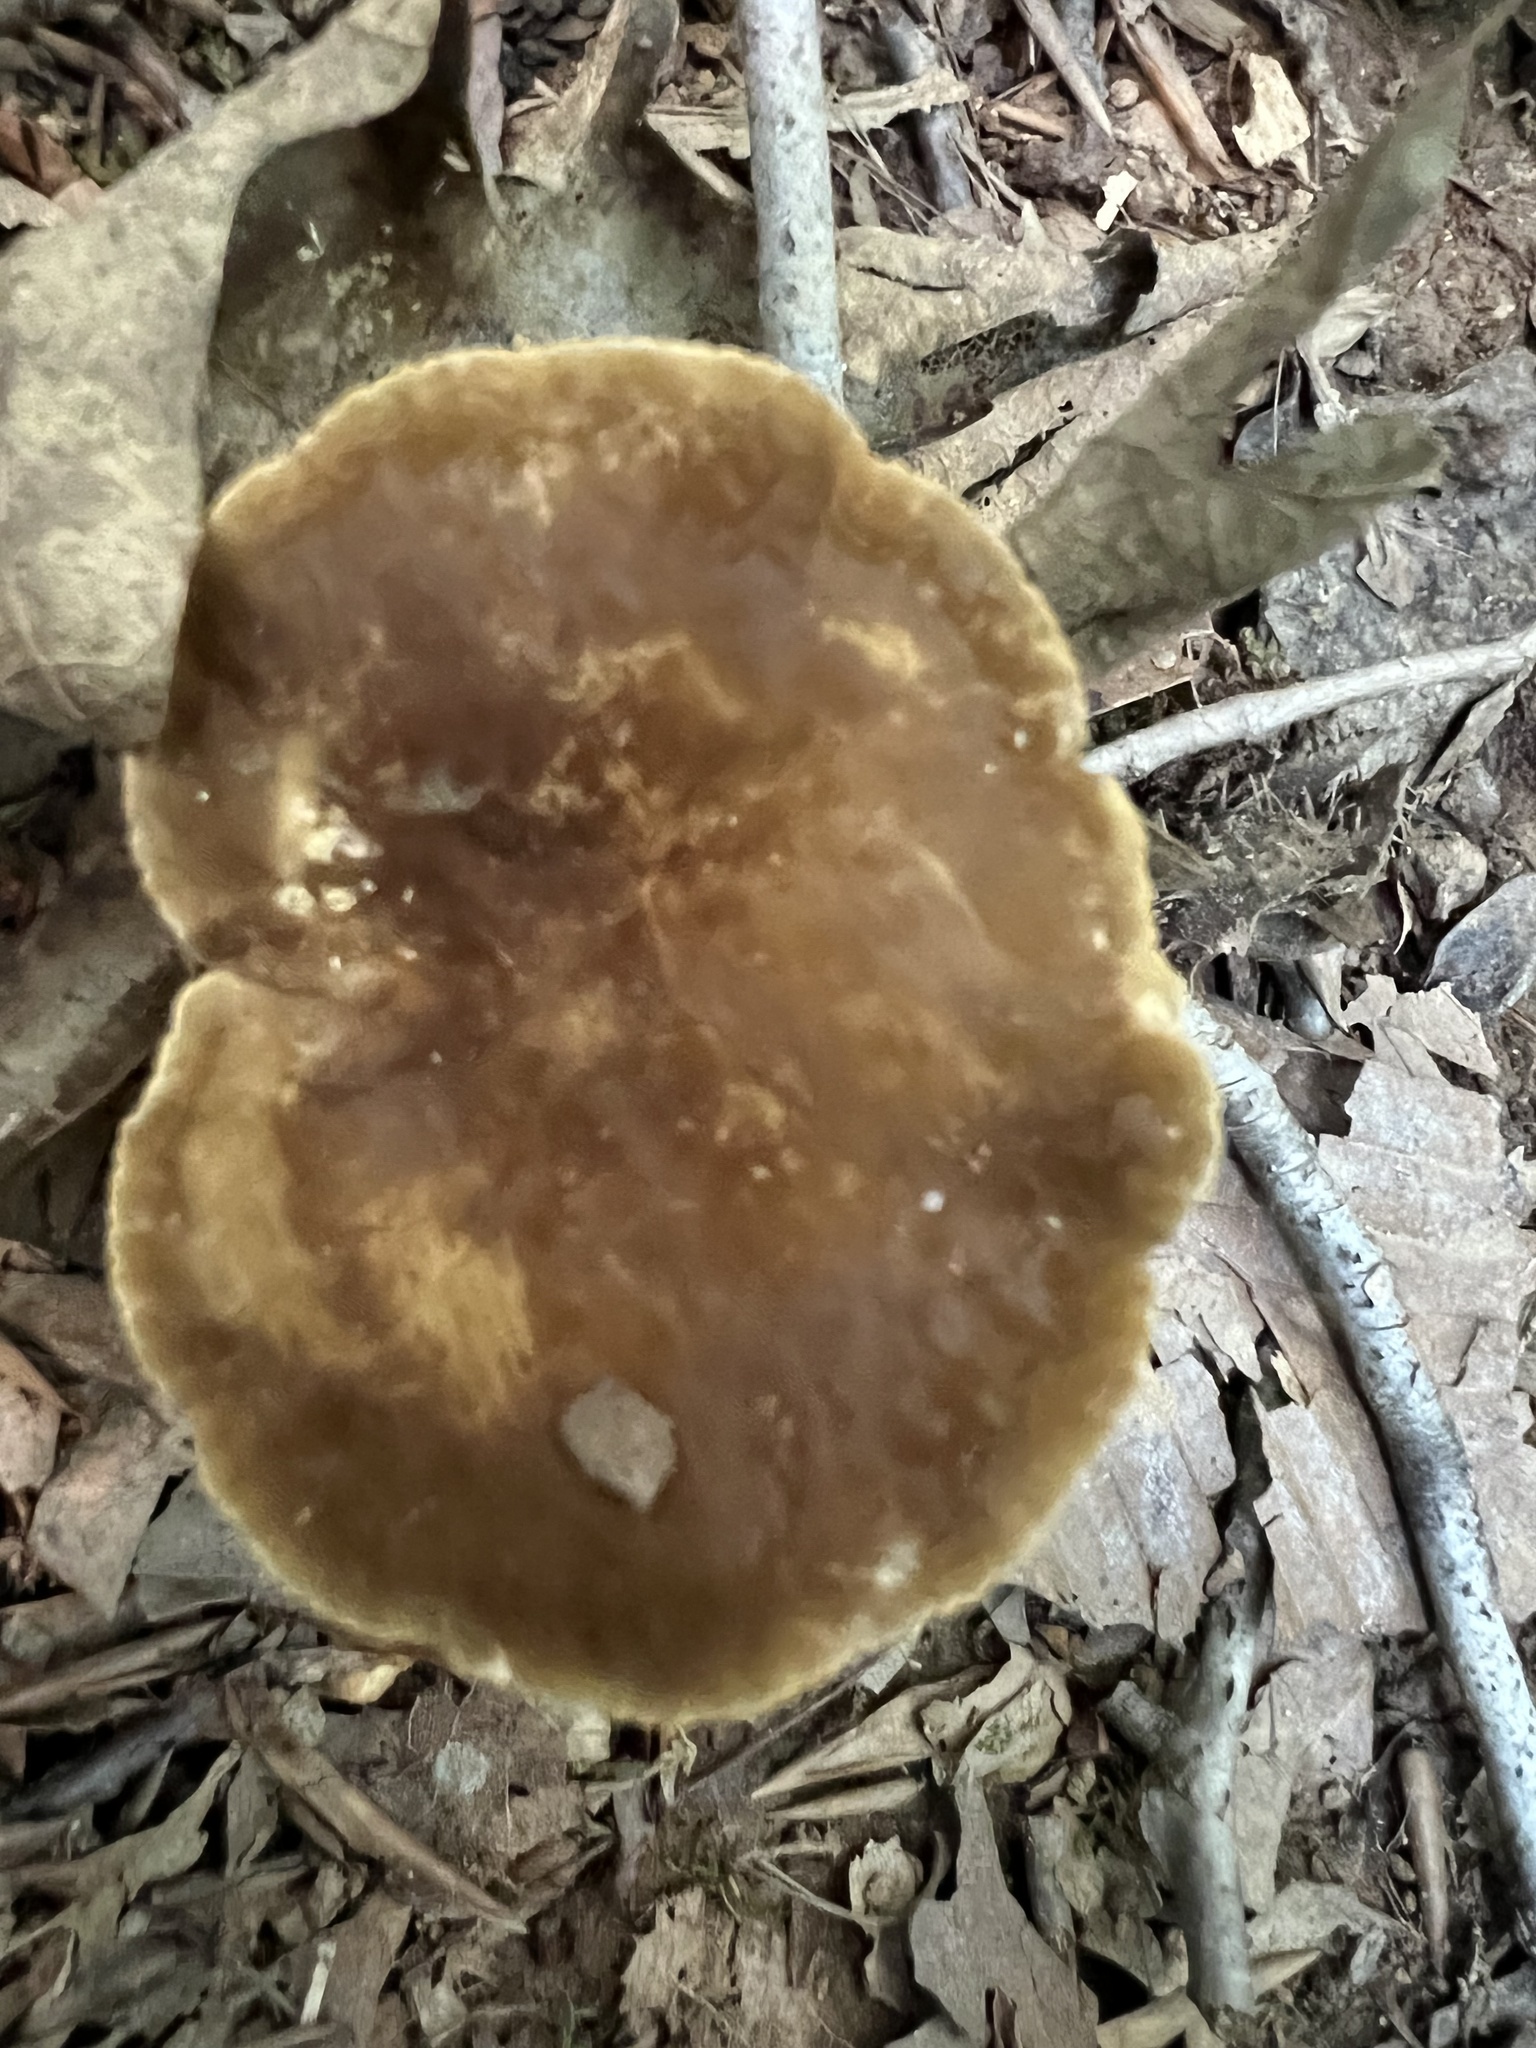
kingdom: Fungi
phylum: Basidiomycota
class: Agaricomycetes
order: Russulales
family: Russulaceae
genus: Lactarius
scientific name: Lactarius gerardii
